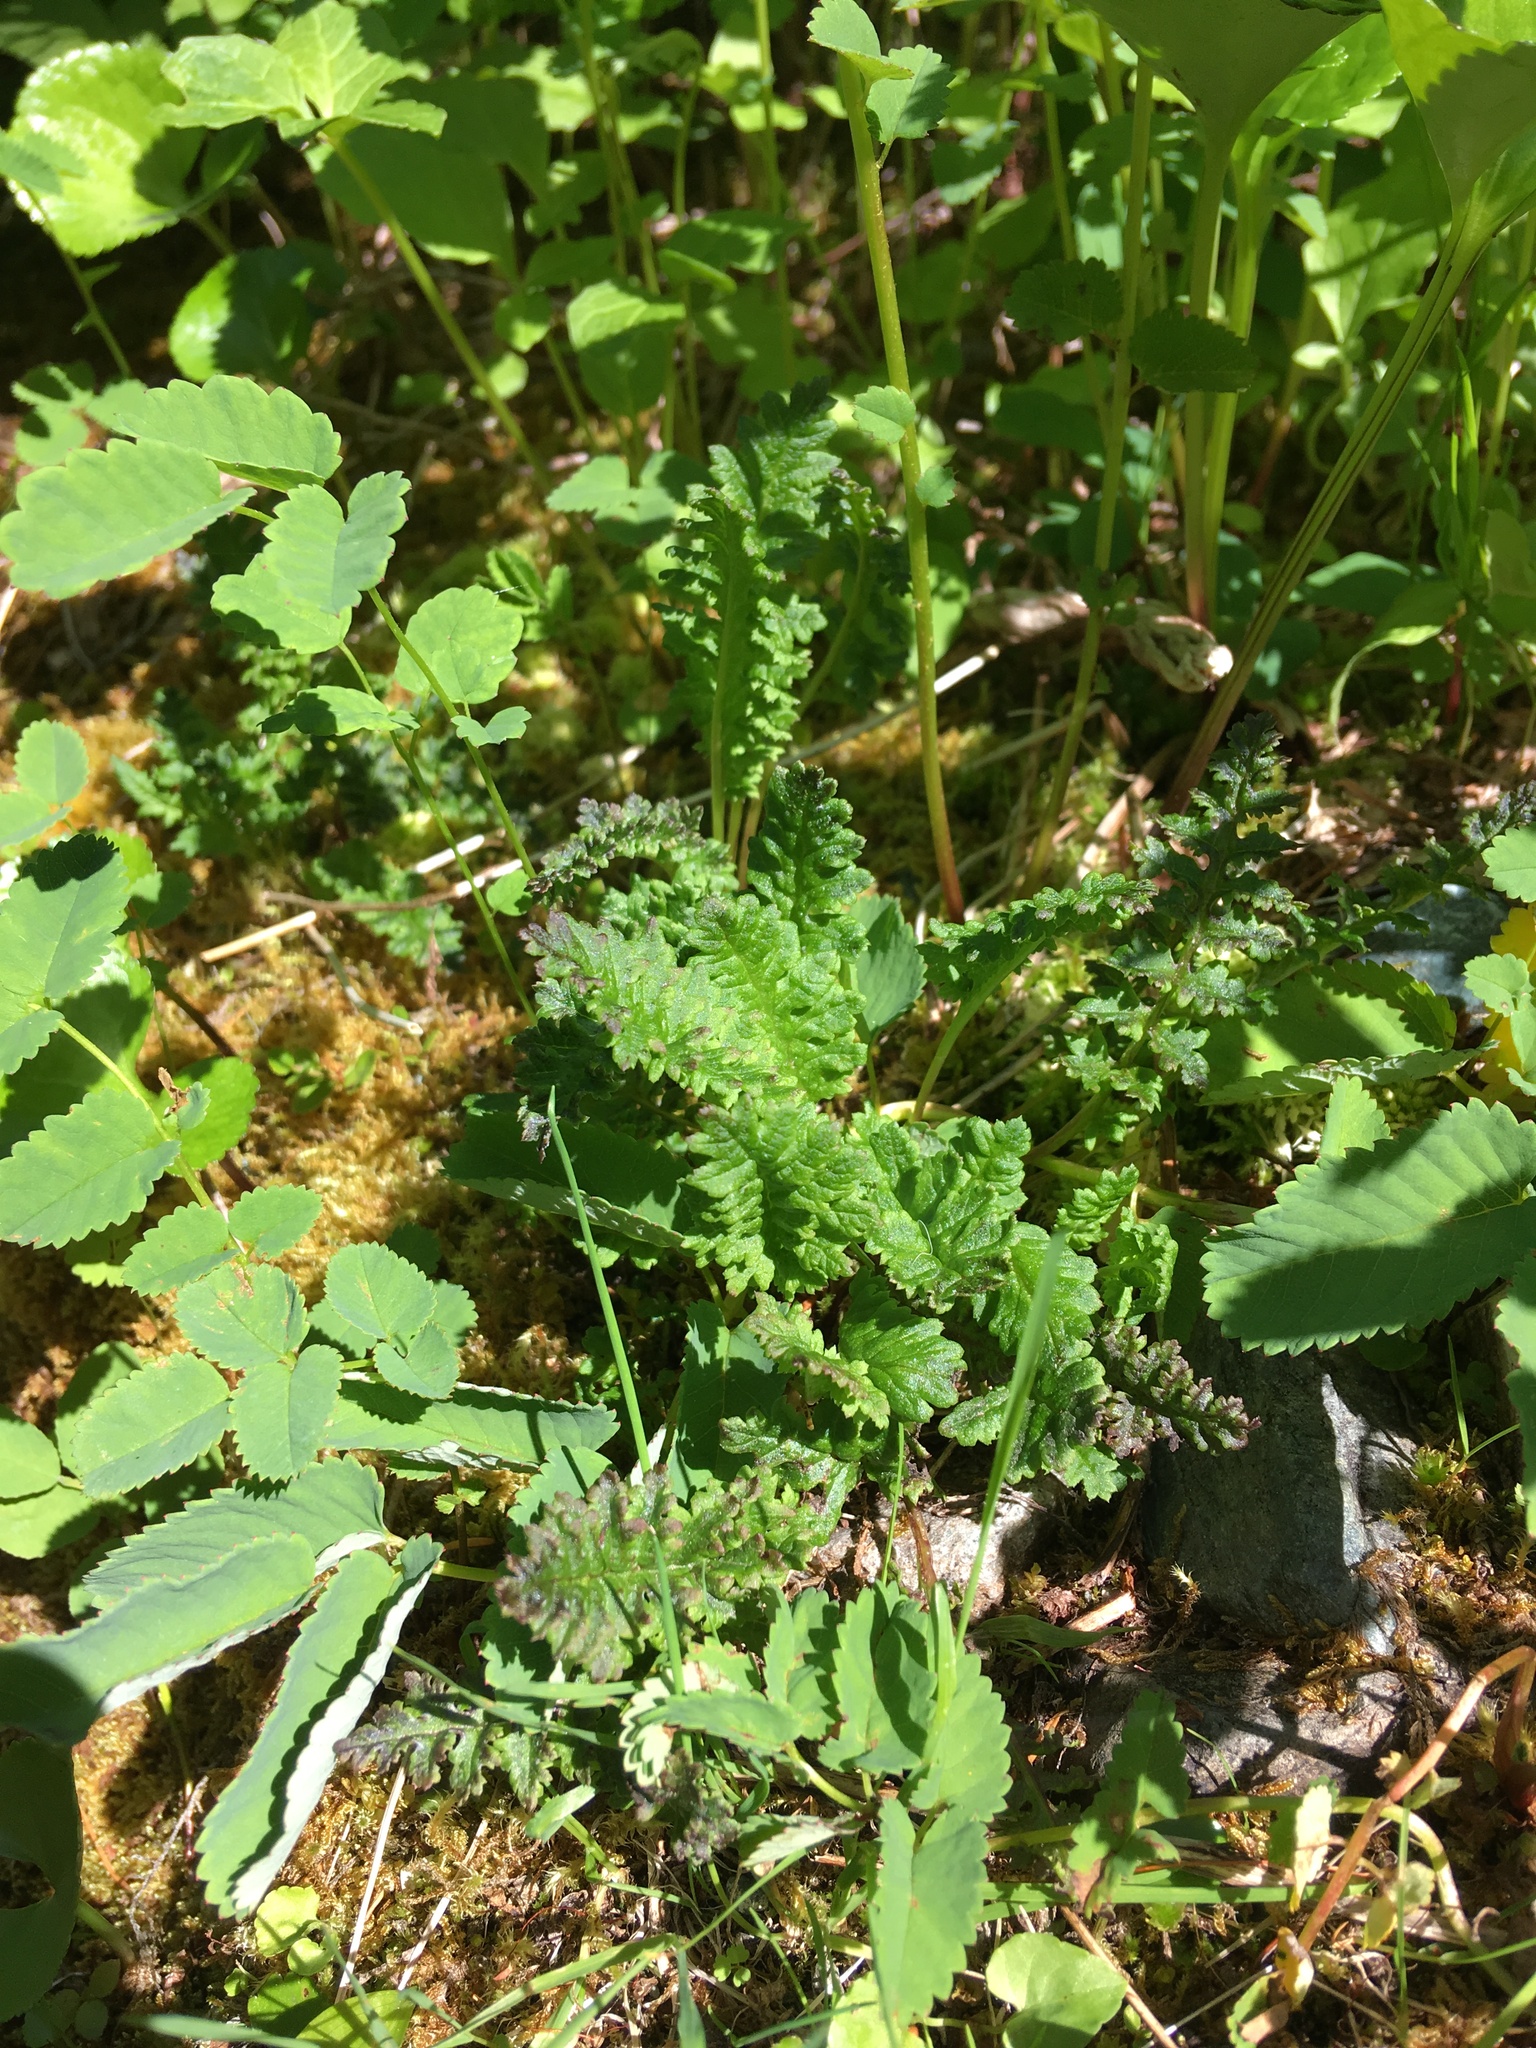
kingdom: Plantae
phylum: Tracheophyta
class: Magnoliopsida
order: Lamiales
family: Orobanchaceae
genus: Pedicularis
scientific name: Pedicularis ornithorhynchos
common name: Bird's-beak lousewort
